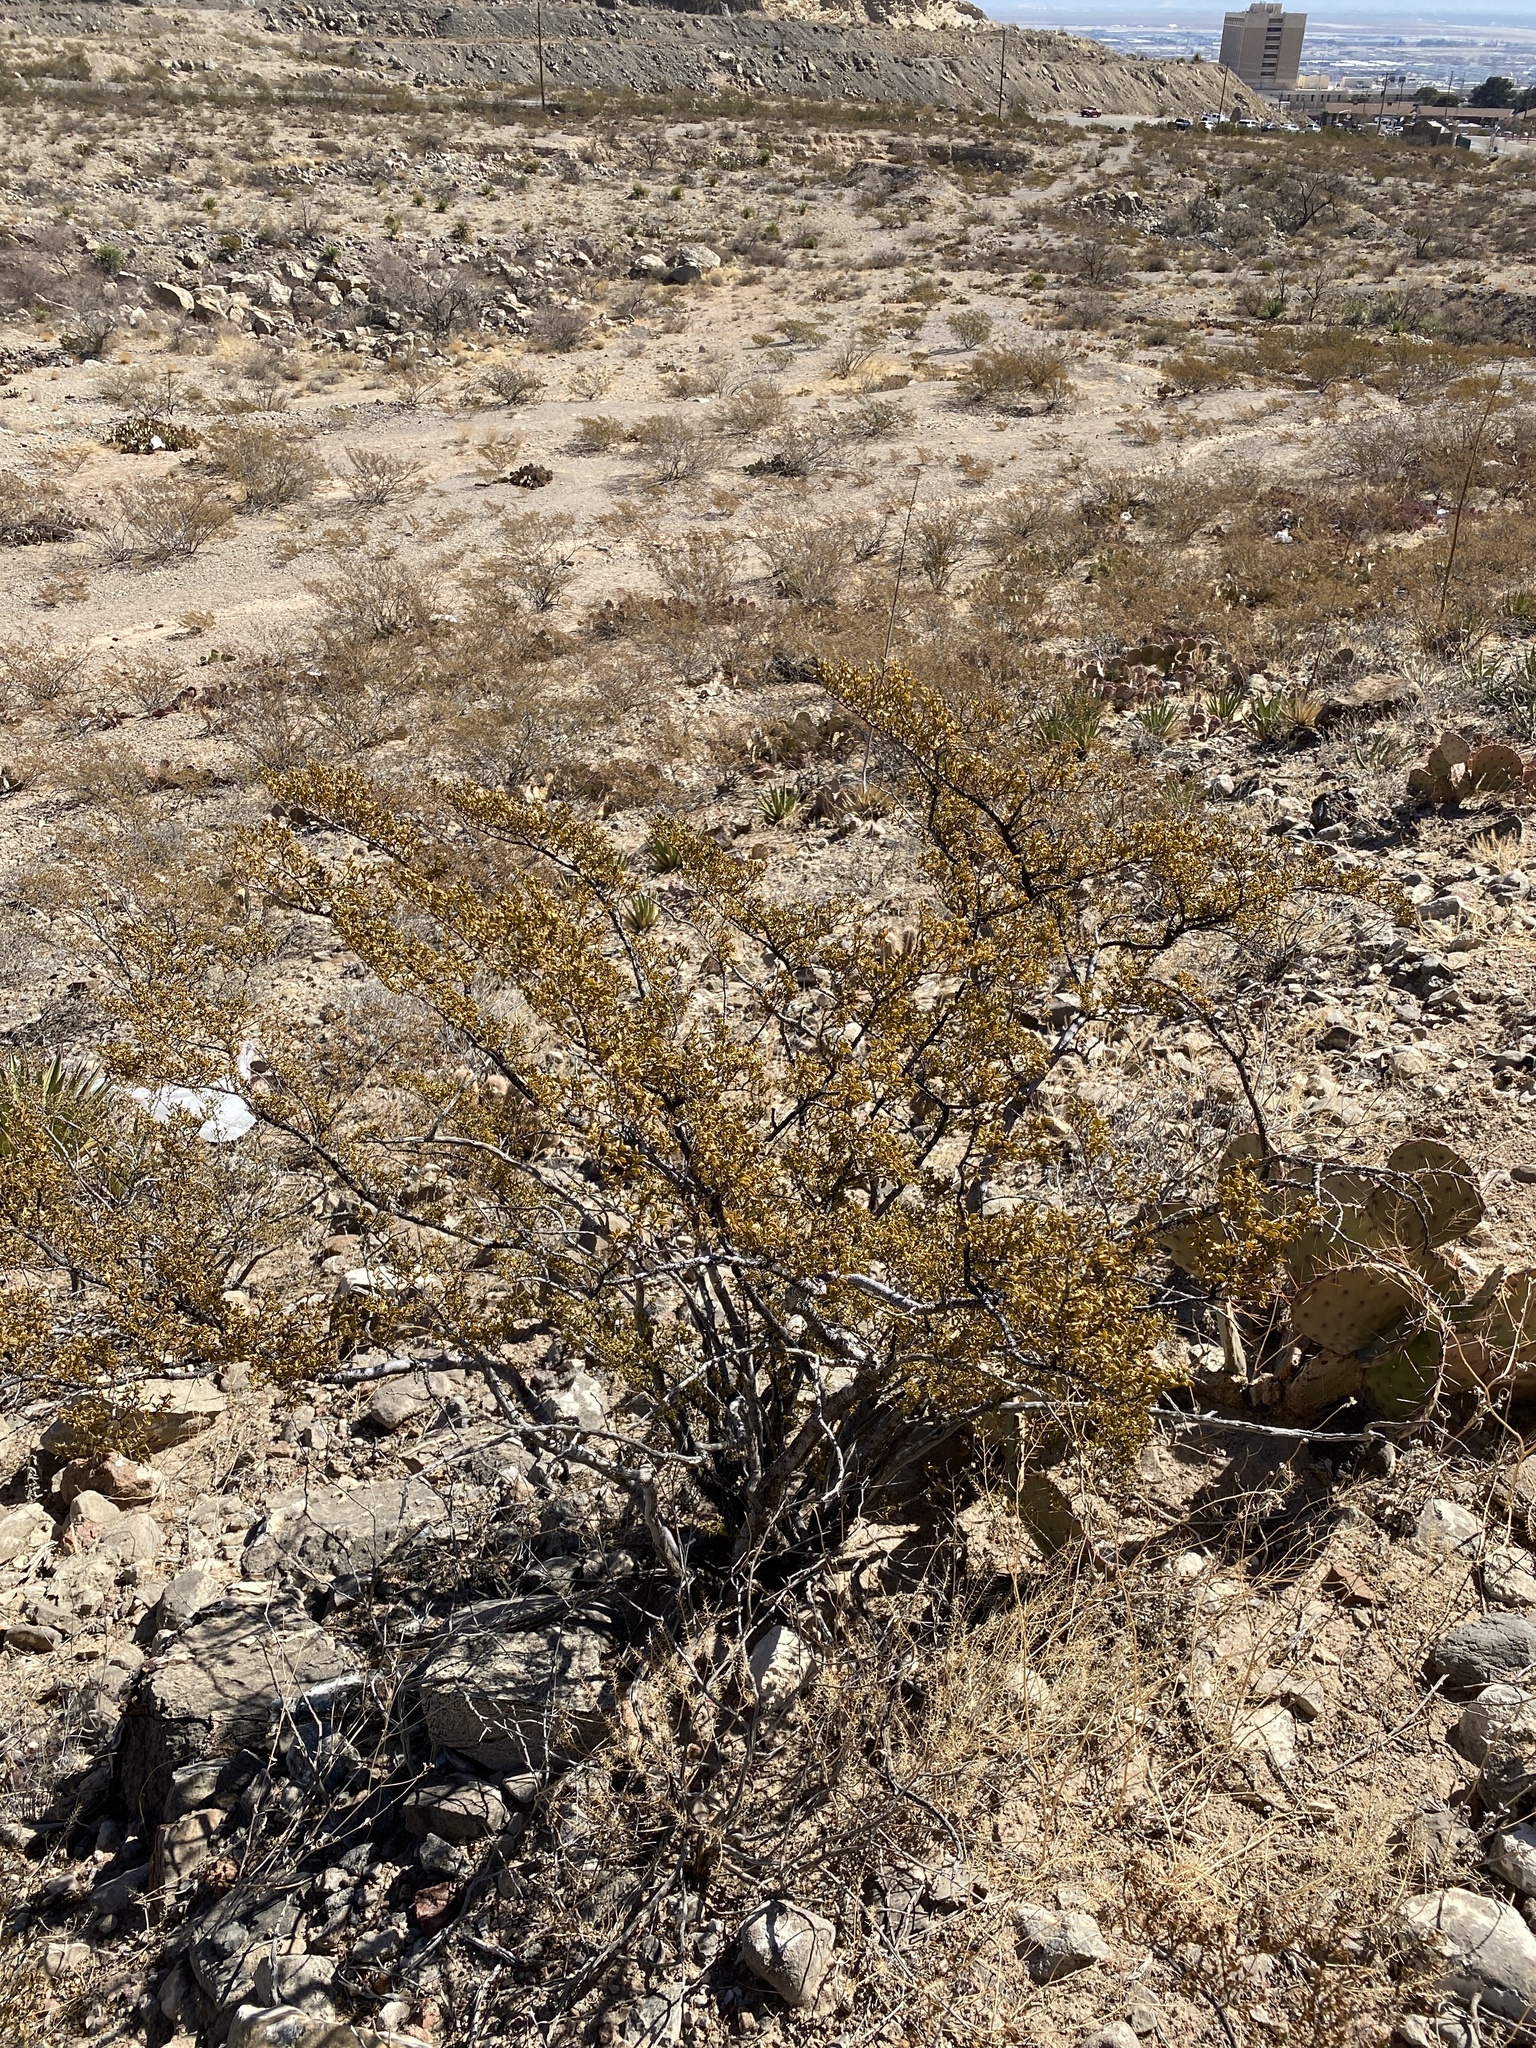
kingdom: Plantae
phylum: Tracheophyta
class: Magnoliopsida
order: Zygophyllales
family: Zygophyllaceae
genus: Larrea
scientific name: Larrea tridentata
